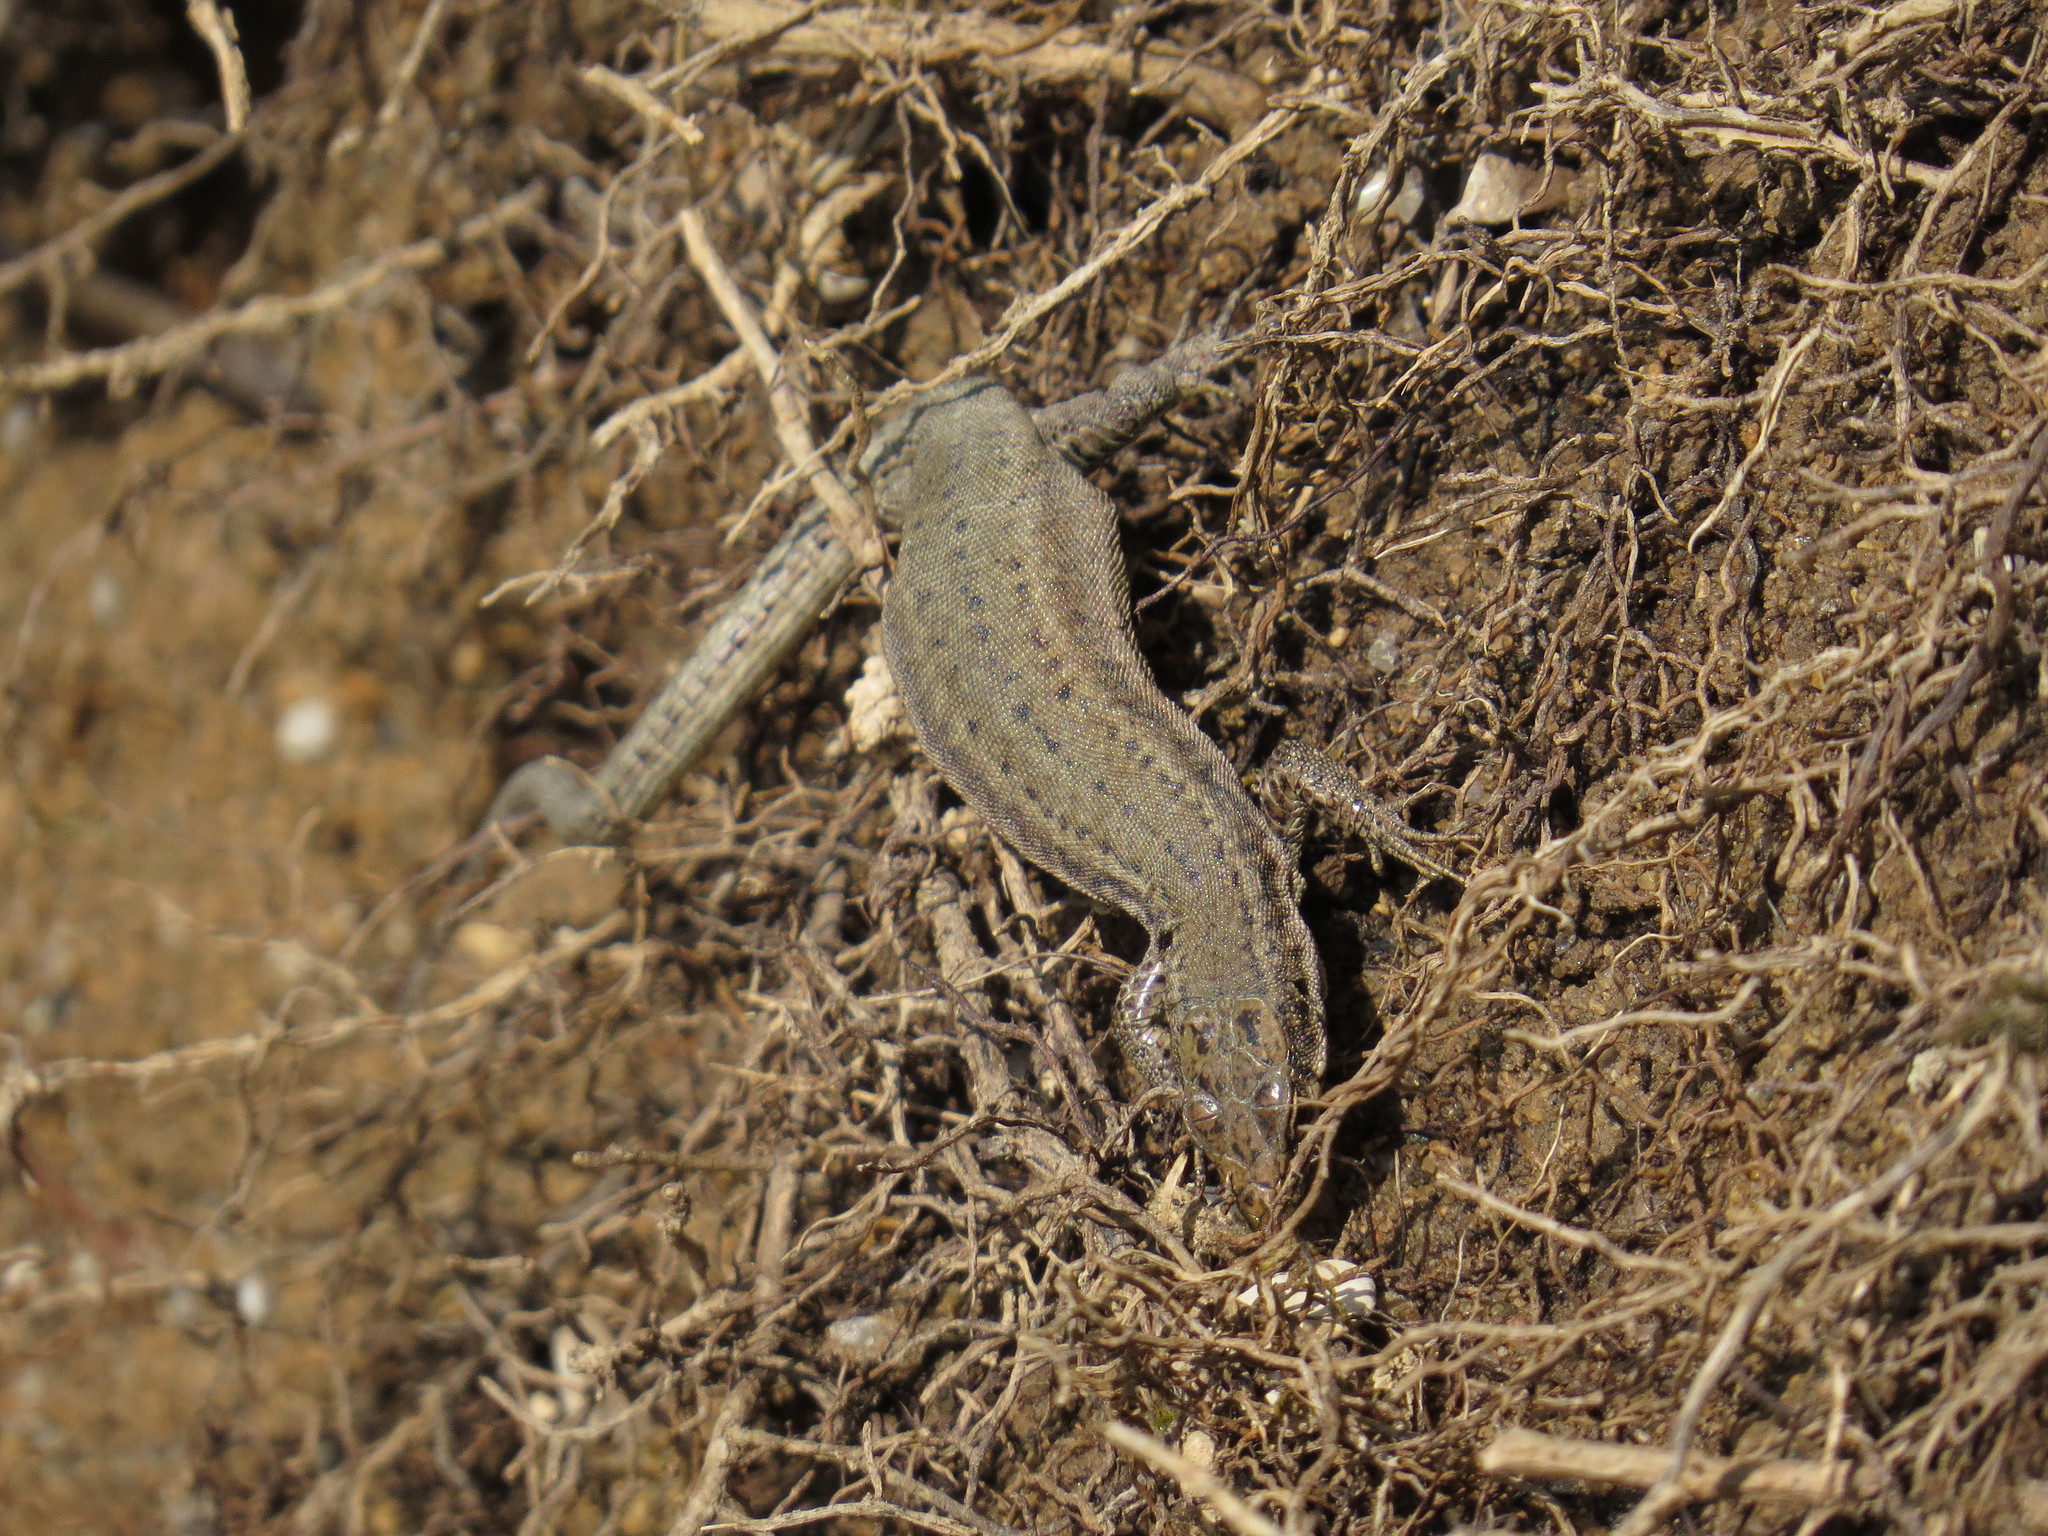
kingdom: Animalia
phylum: Chordata
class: Squamata
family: Lacertidae
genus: Podarcis
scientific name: Podarcis liolepis
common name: Catalonian wall lizard
